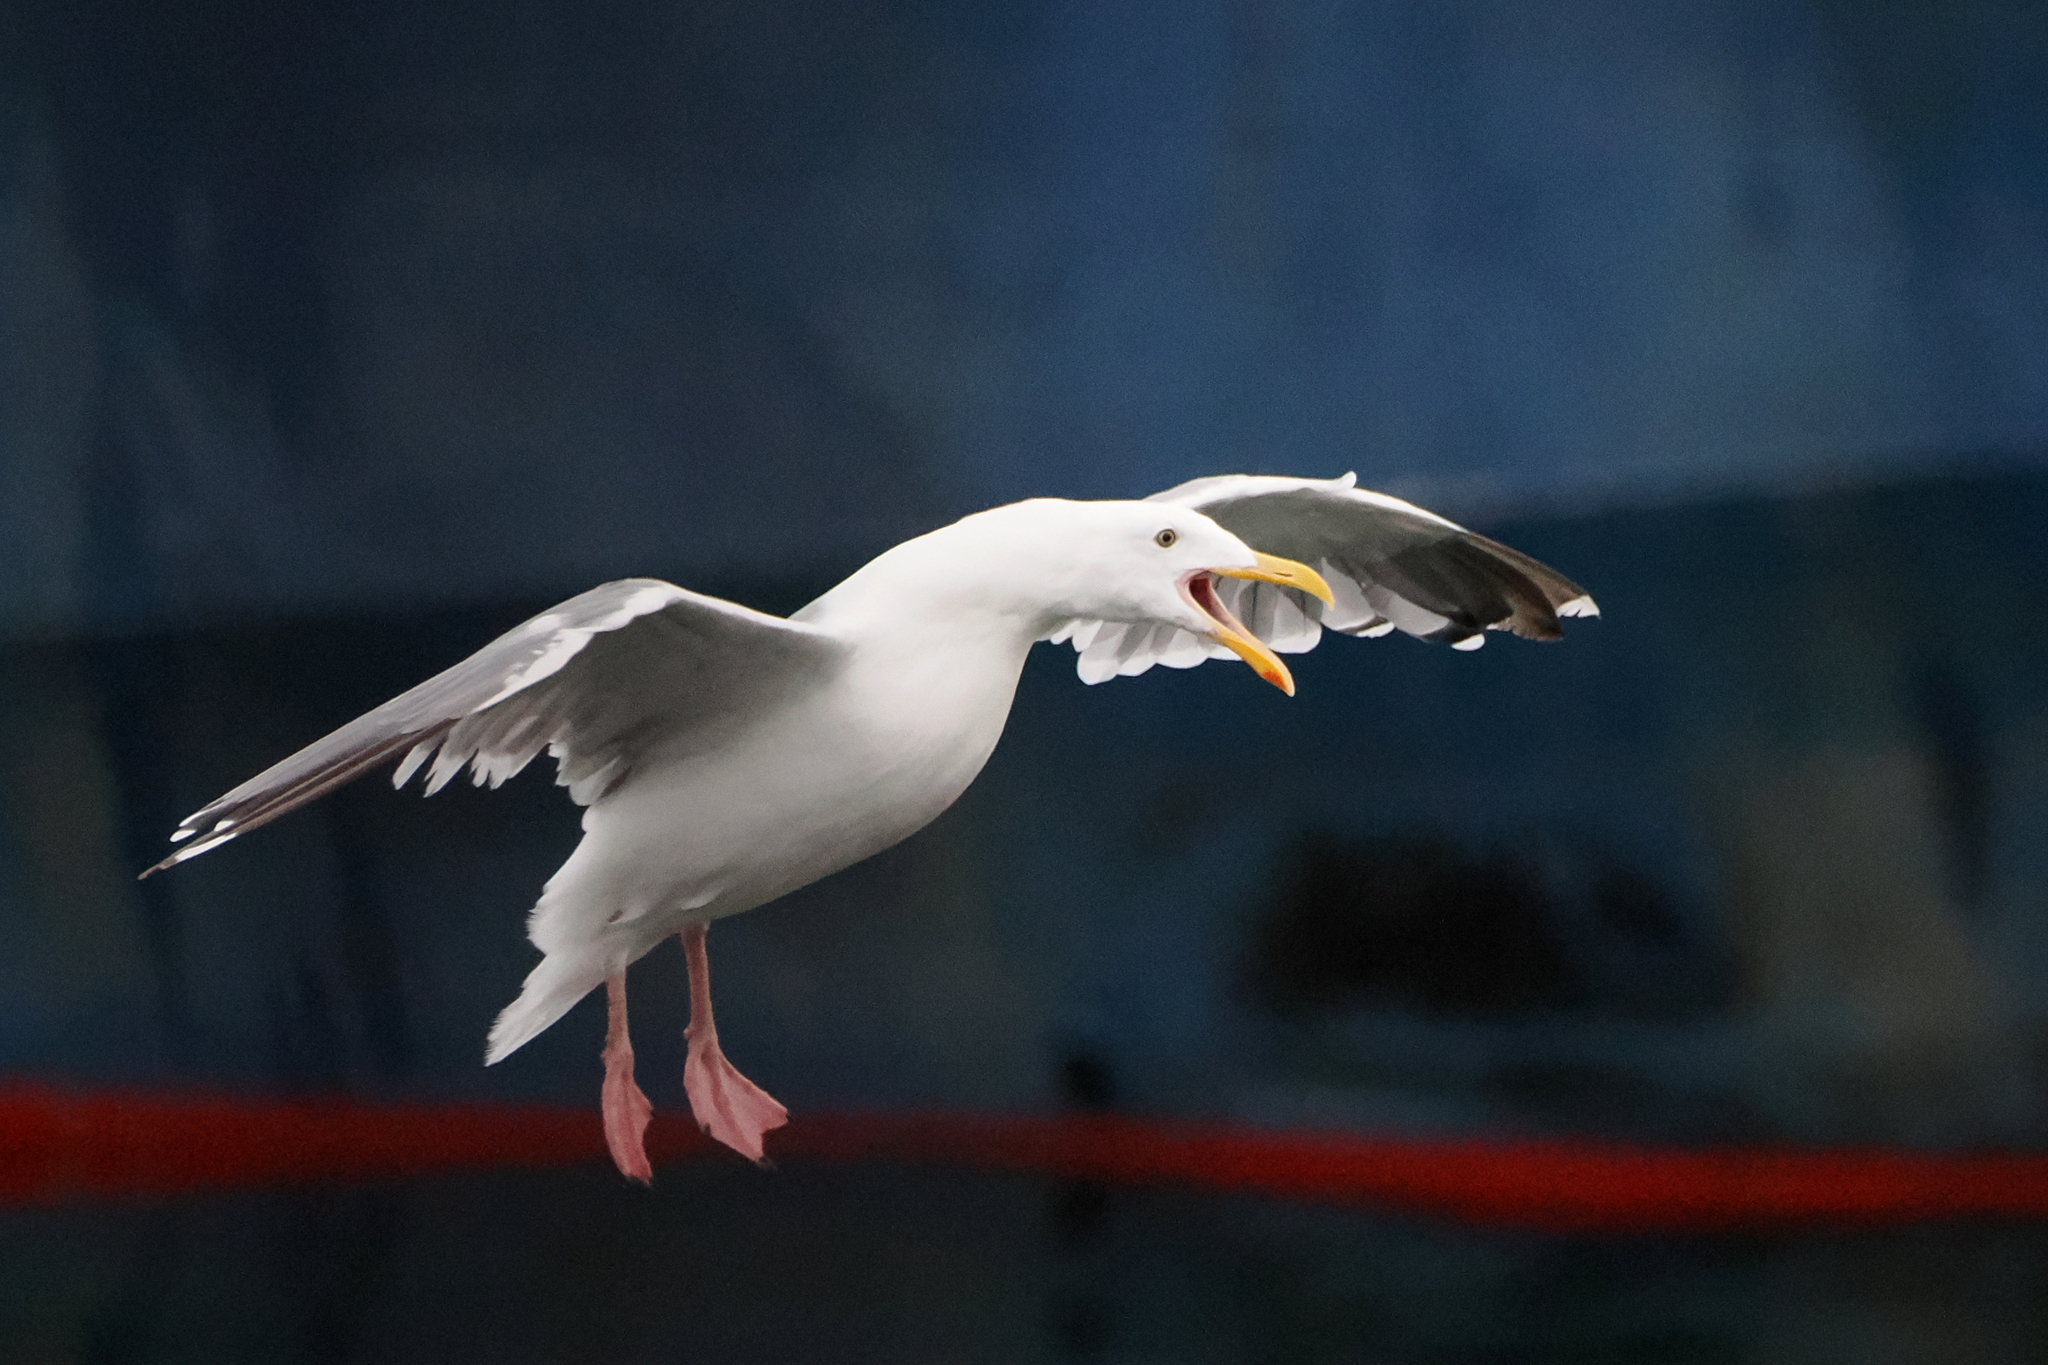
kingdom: Animalia
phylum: Chordata
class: Aves
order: Charadriiformes
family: Laridae
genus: Larus
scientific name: Larus occidentalis
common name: Western gull
